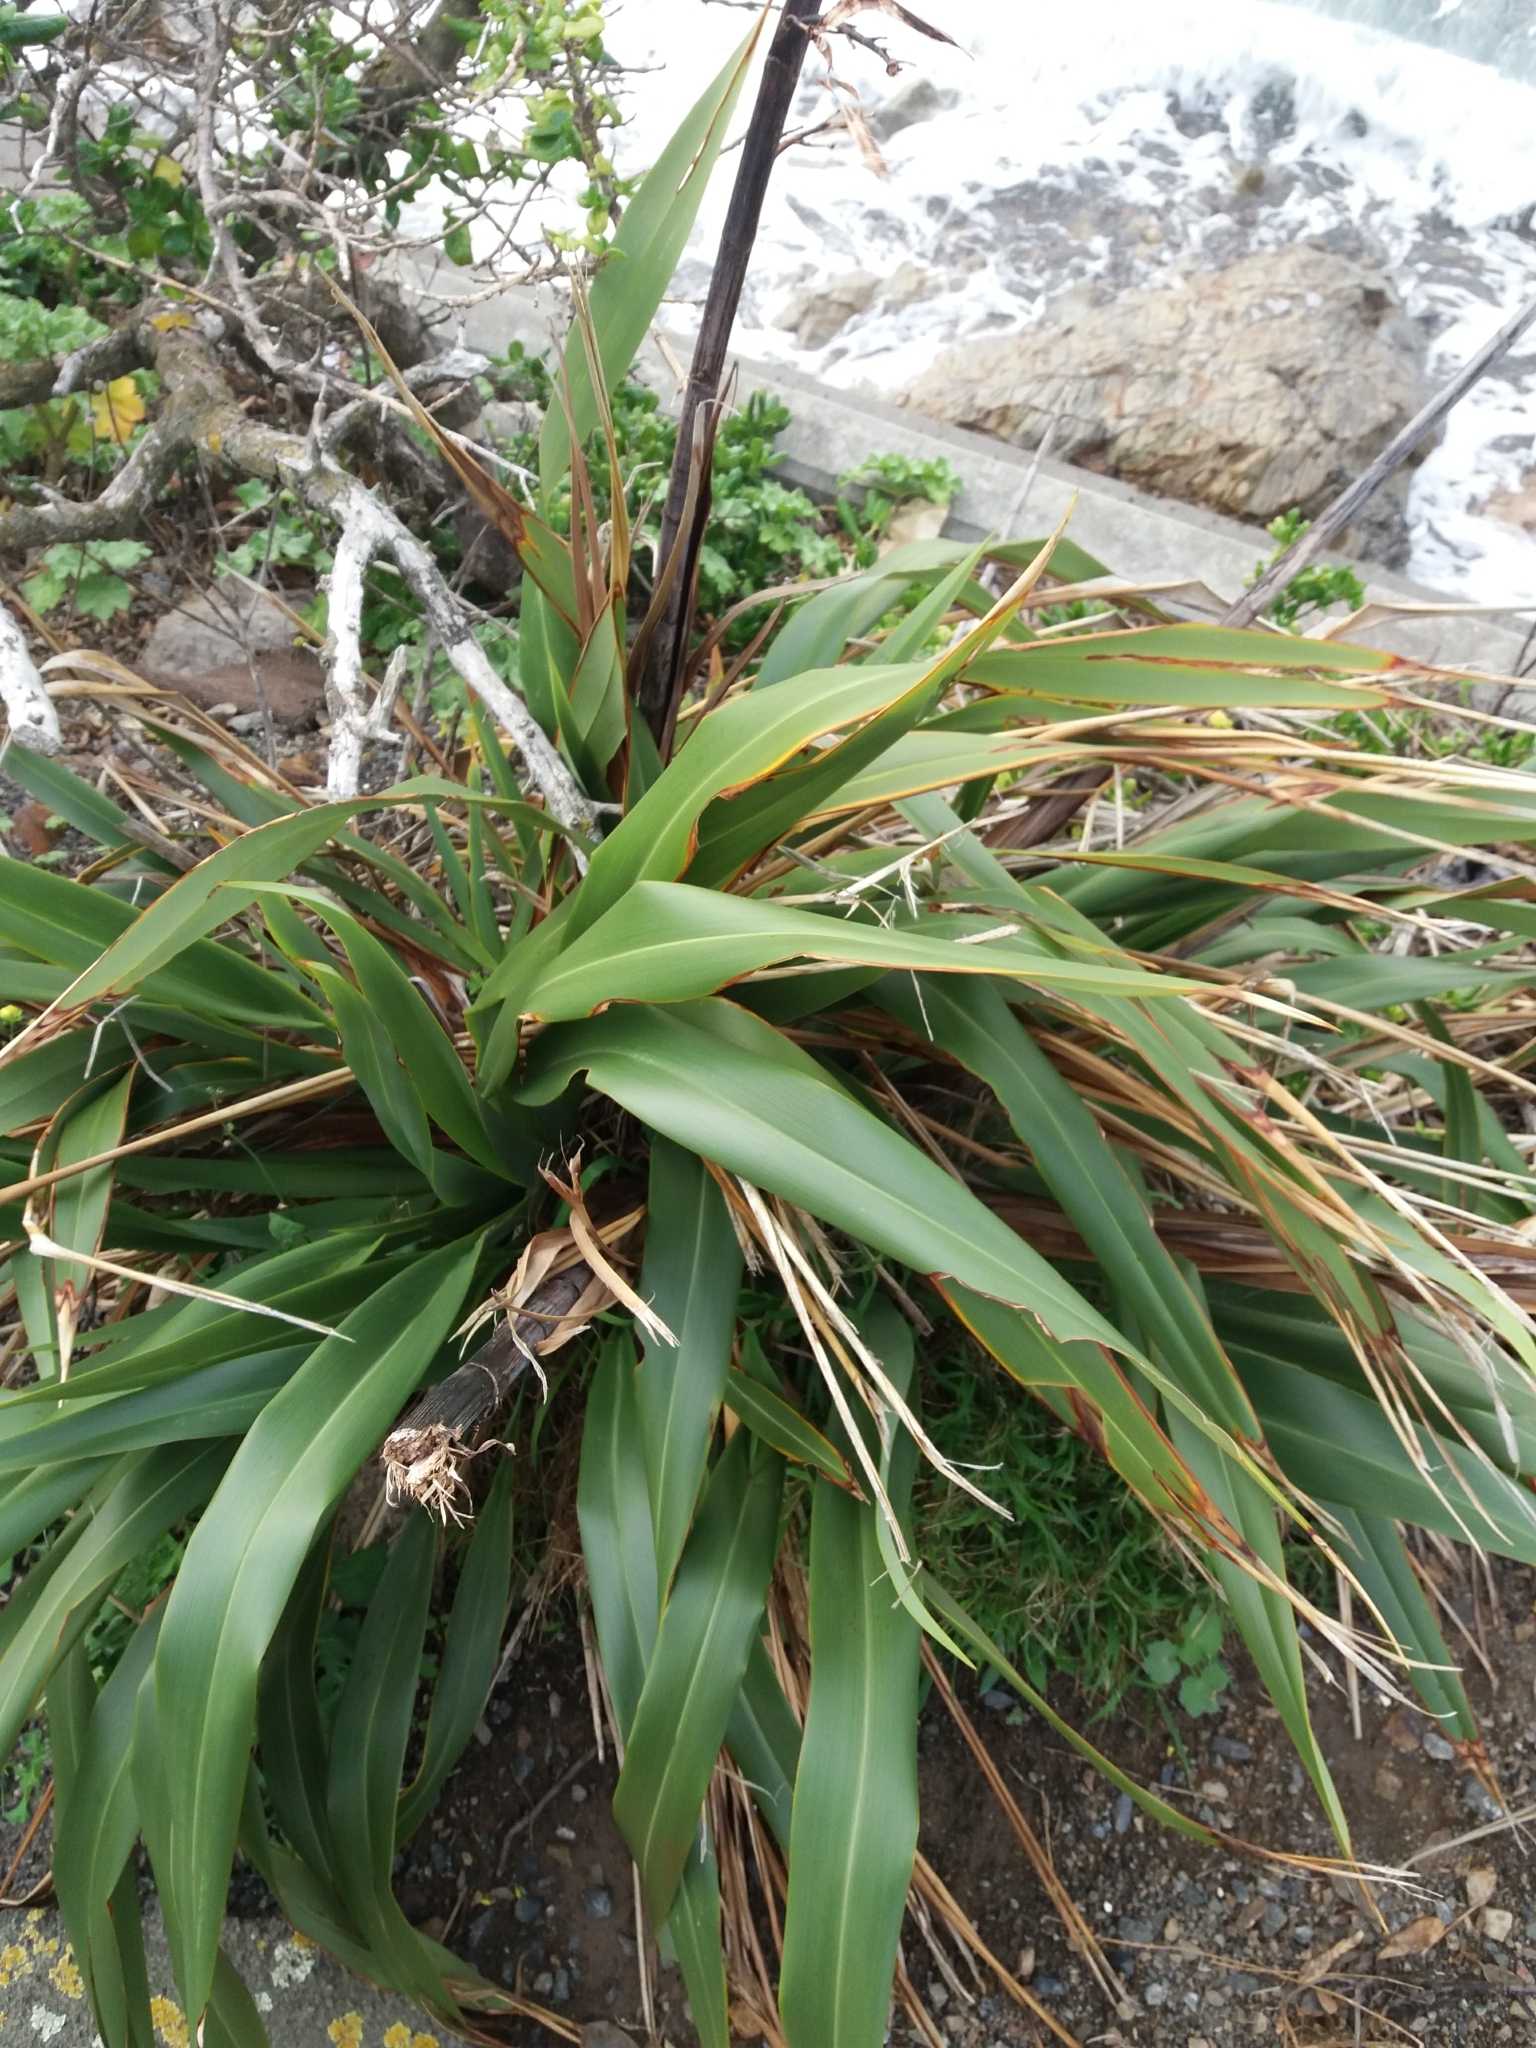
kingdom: Plantae
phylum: Tracheophyta
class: Liliopsida
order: Asparagales
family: Asphodelaceae
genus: Phormium
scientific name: Phormium tenax
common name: New zealand flax
